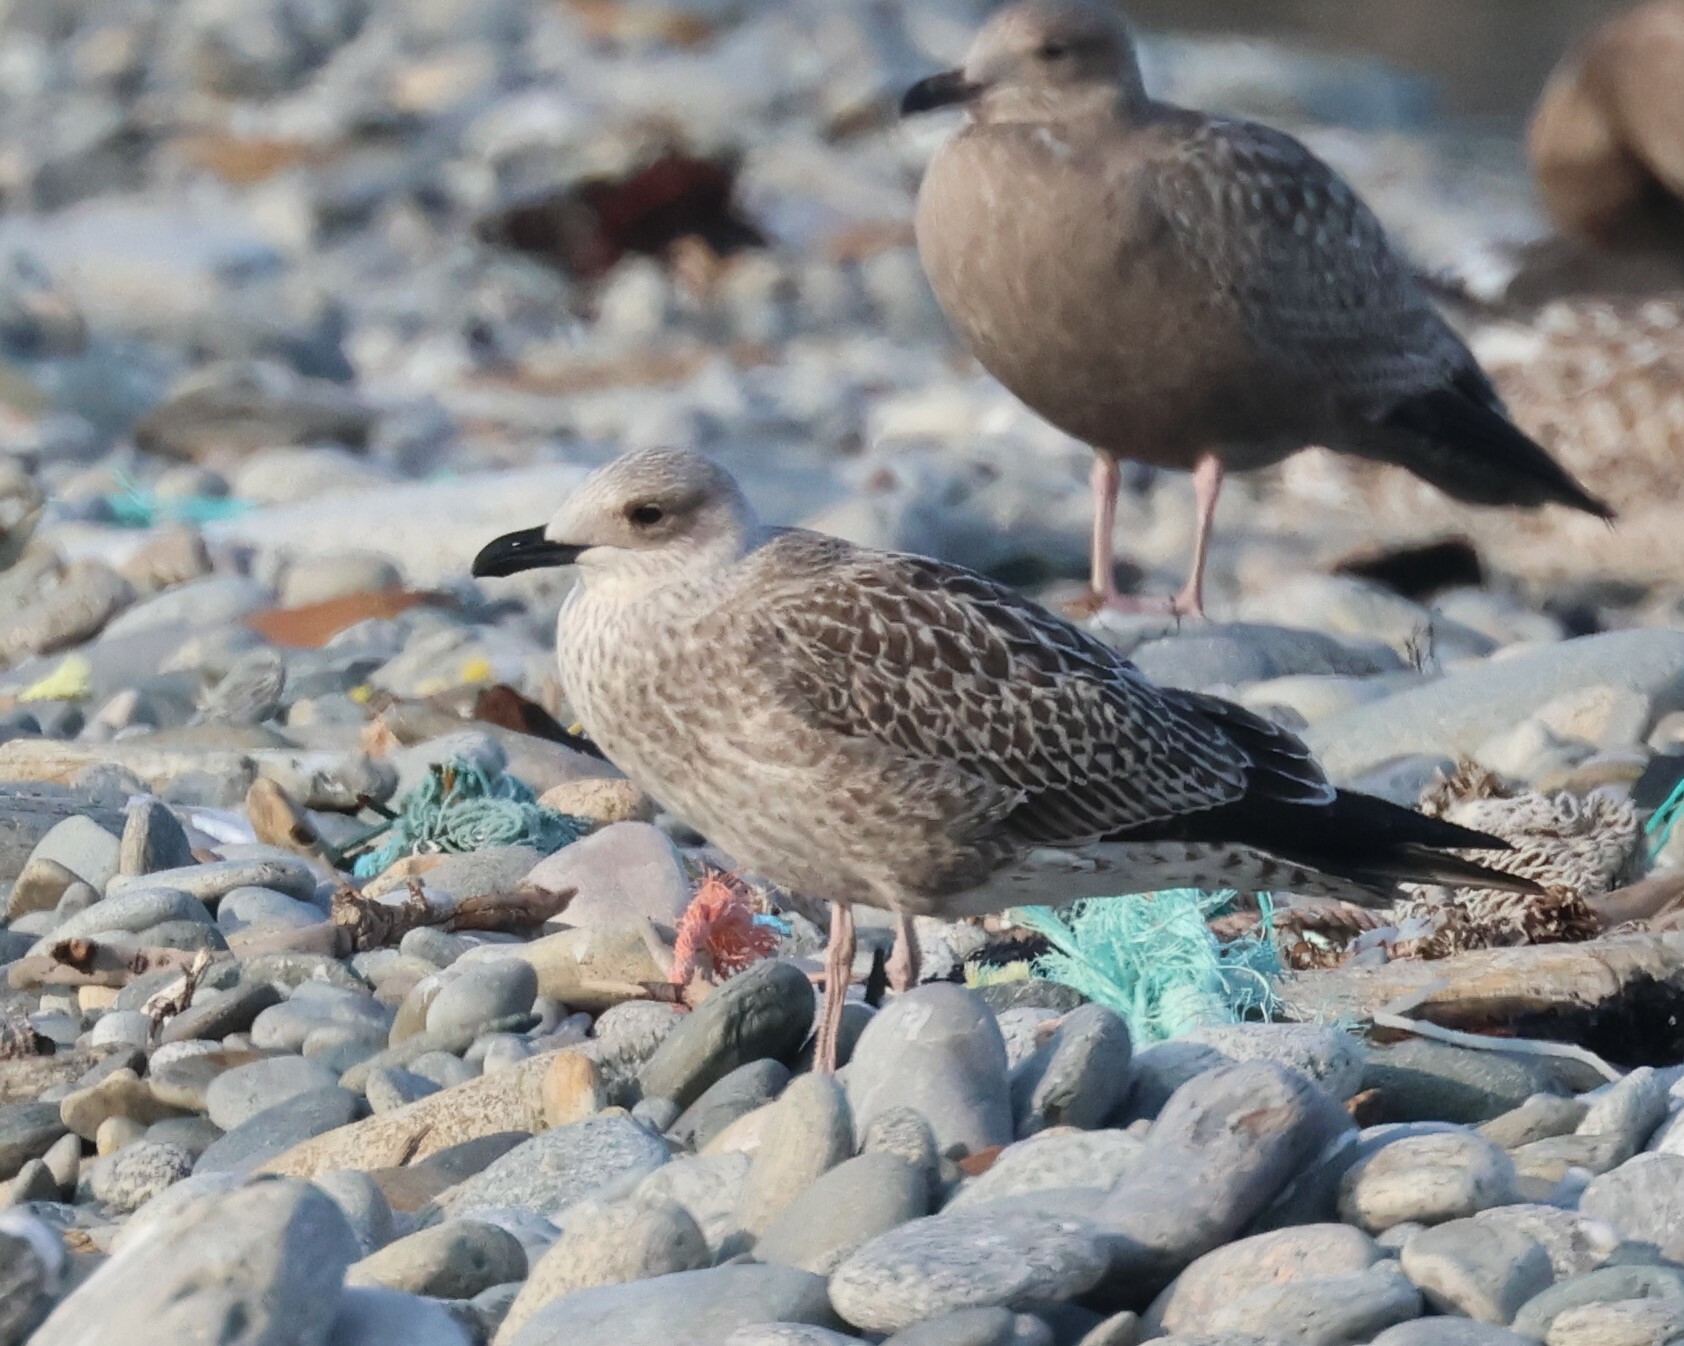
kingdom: Animalia
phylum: Chordata
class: Aves
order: Charadriiformes
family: Laridae
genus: Larus
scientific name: Larus marinus
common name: Great black-backed gull
